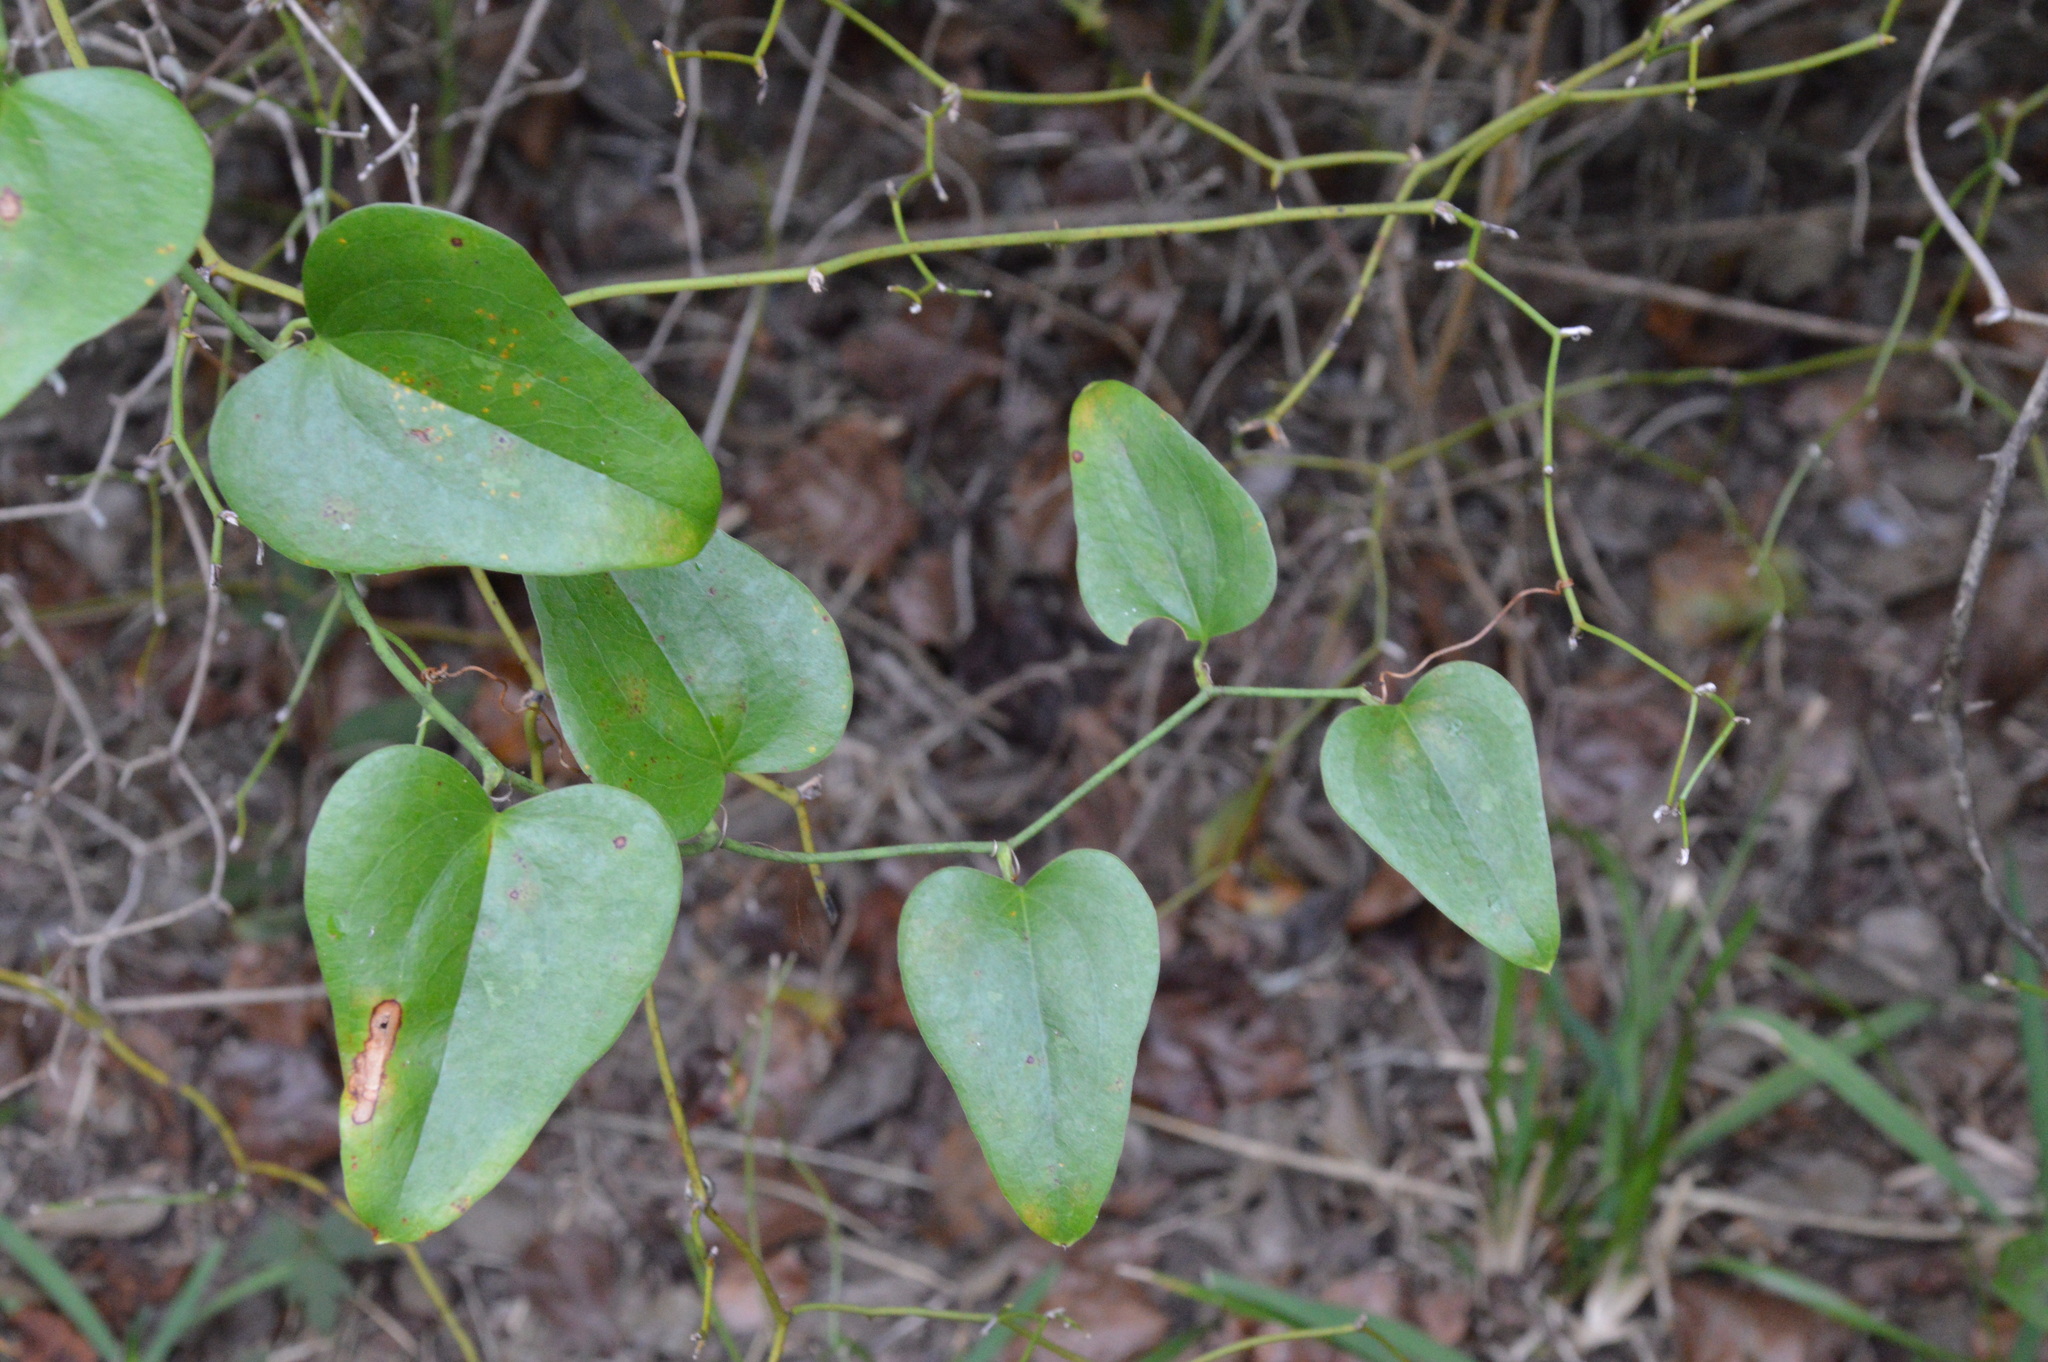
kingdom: Plantae
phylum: Tracheophyta
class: Liliopsida
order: Liliales
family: Smilacaceae
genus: Smilax
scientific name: Smilax bona-nox
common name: Catbrier
